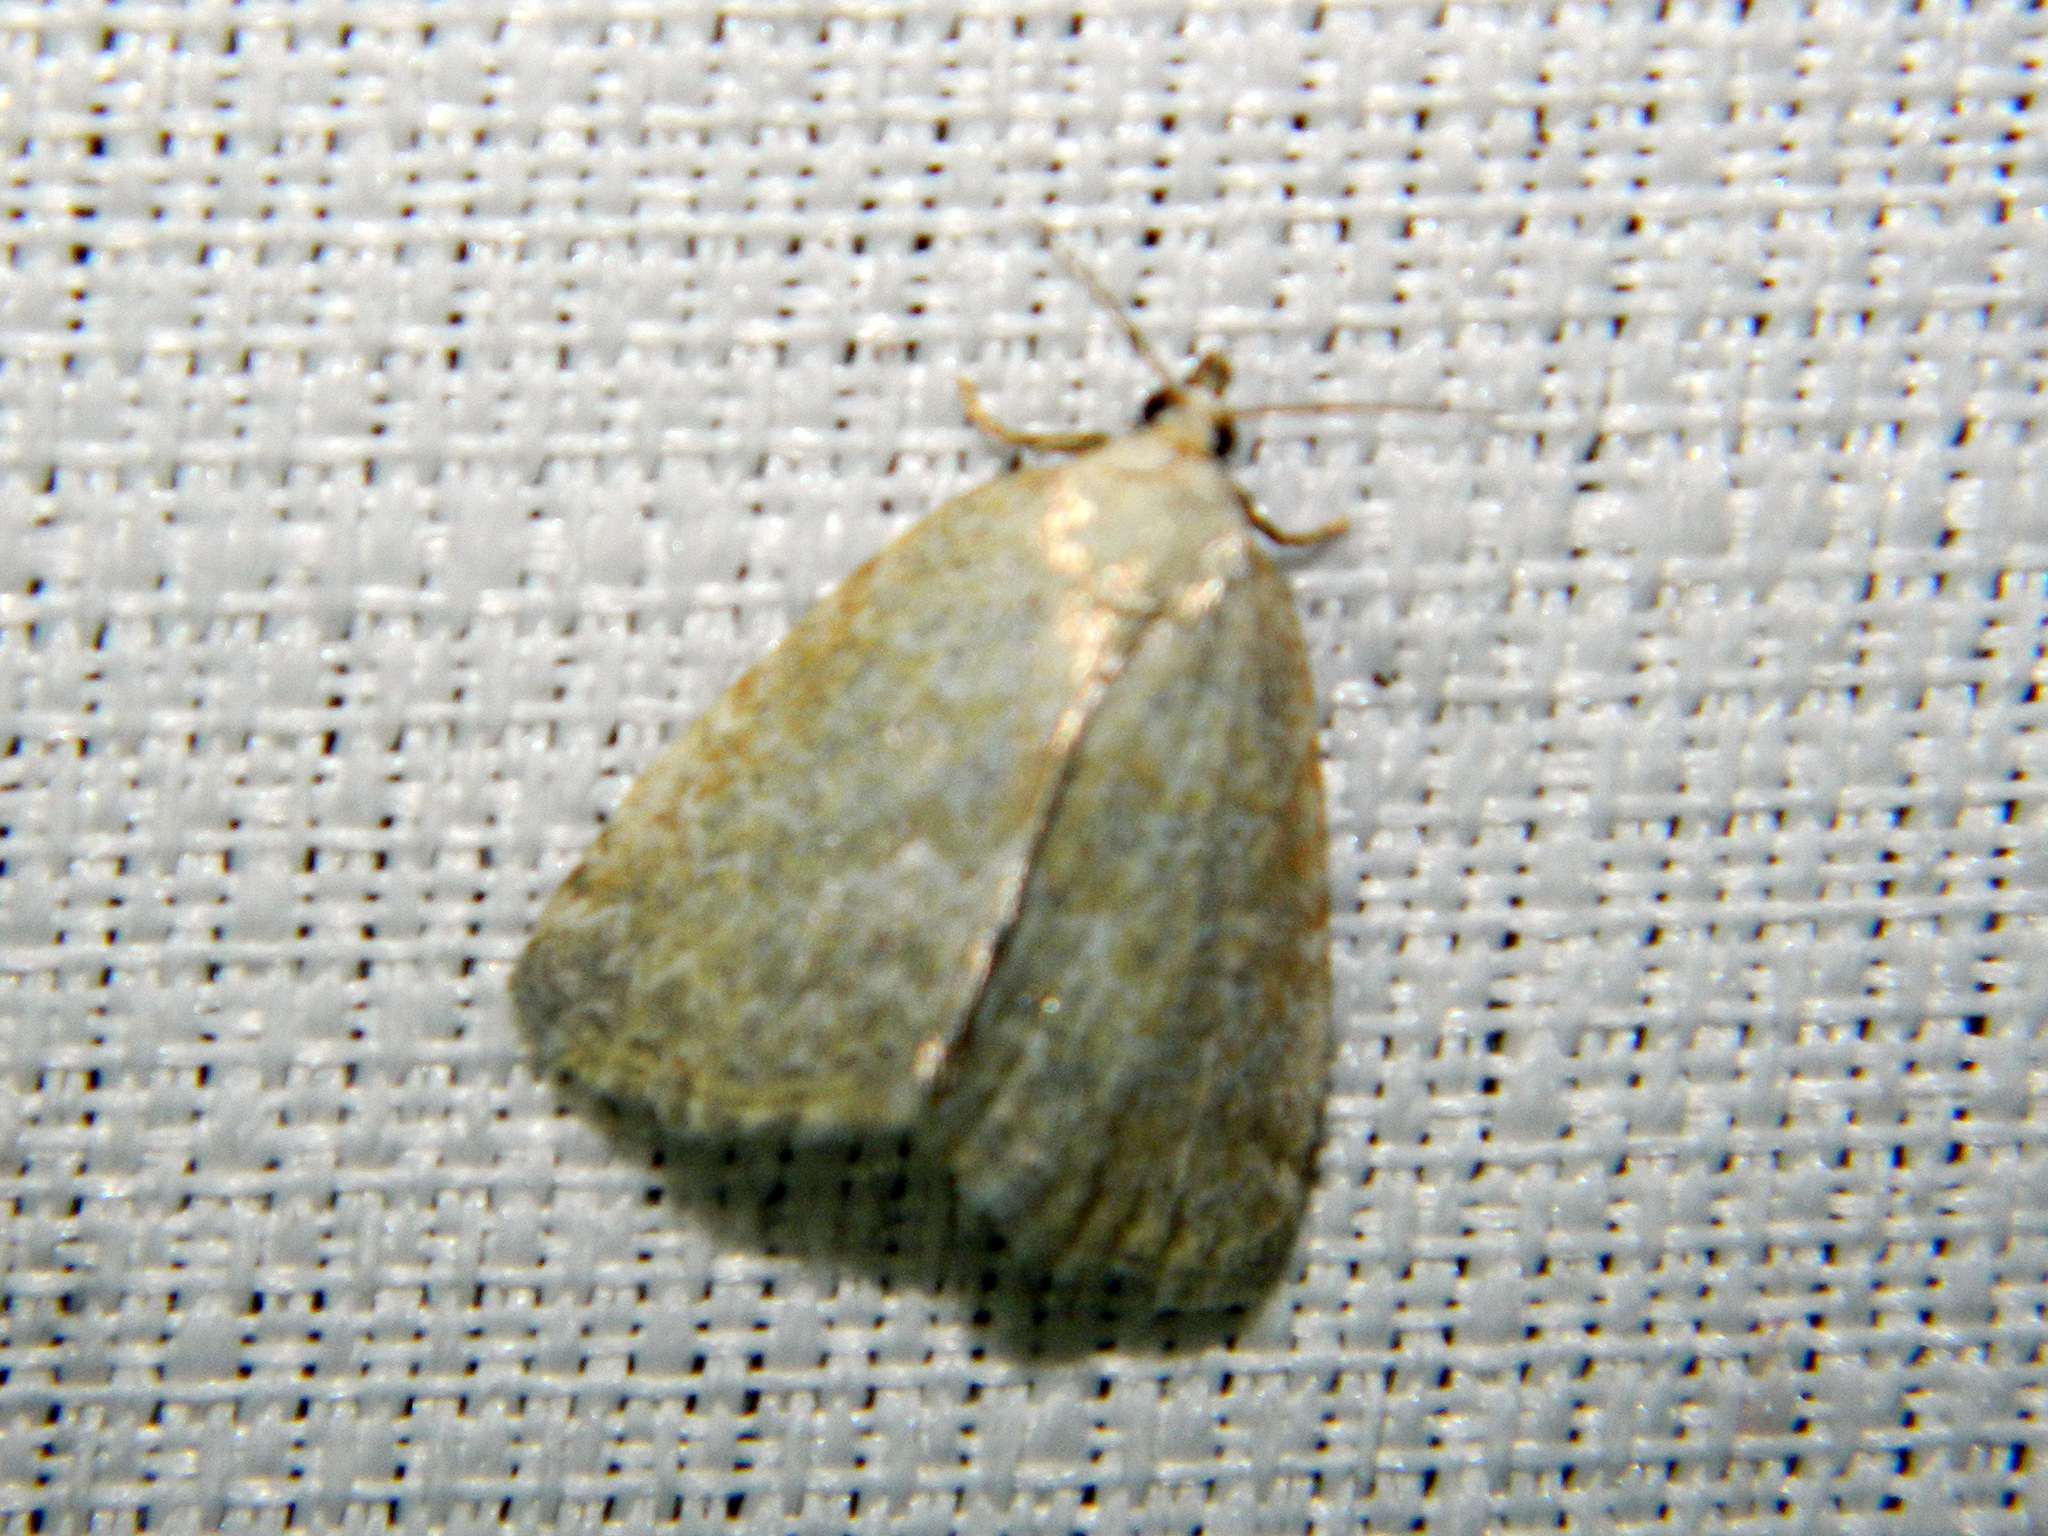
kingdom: Animalia
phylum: Arthropoda
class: Insecta
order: Lepidoptera
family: Noctuidae
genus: Protodeltote
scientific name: Protodeltote albidula
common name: Pale glyph
